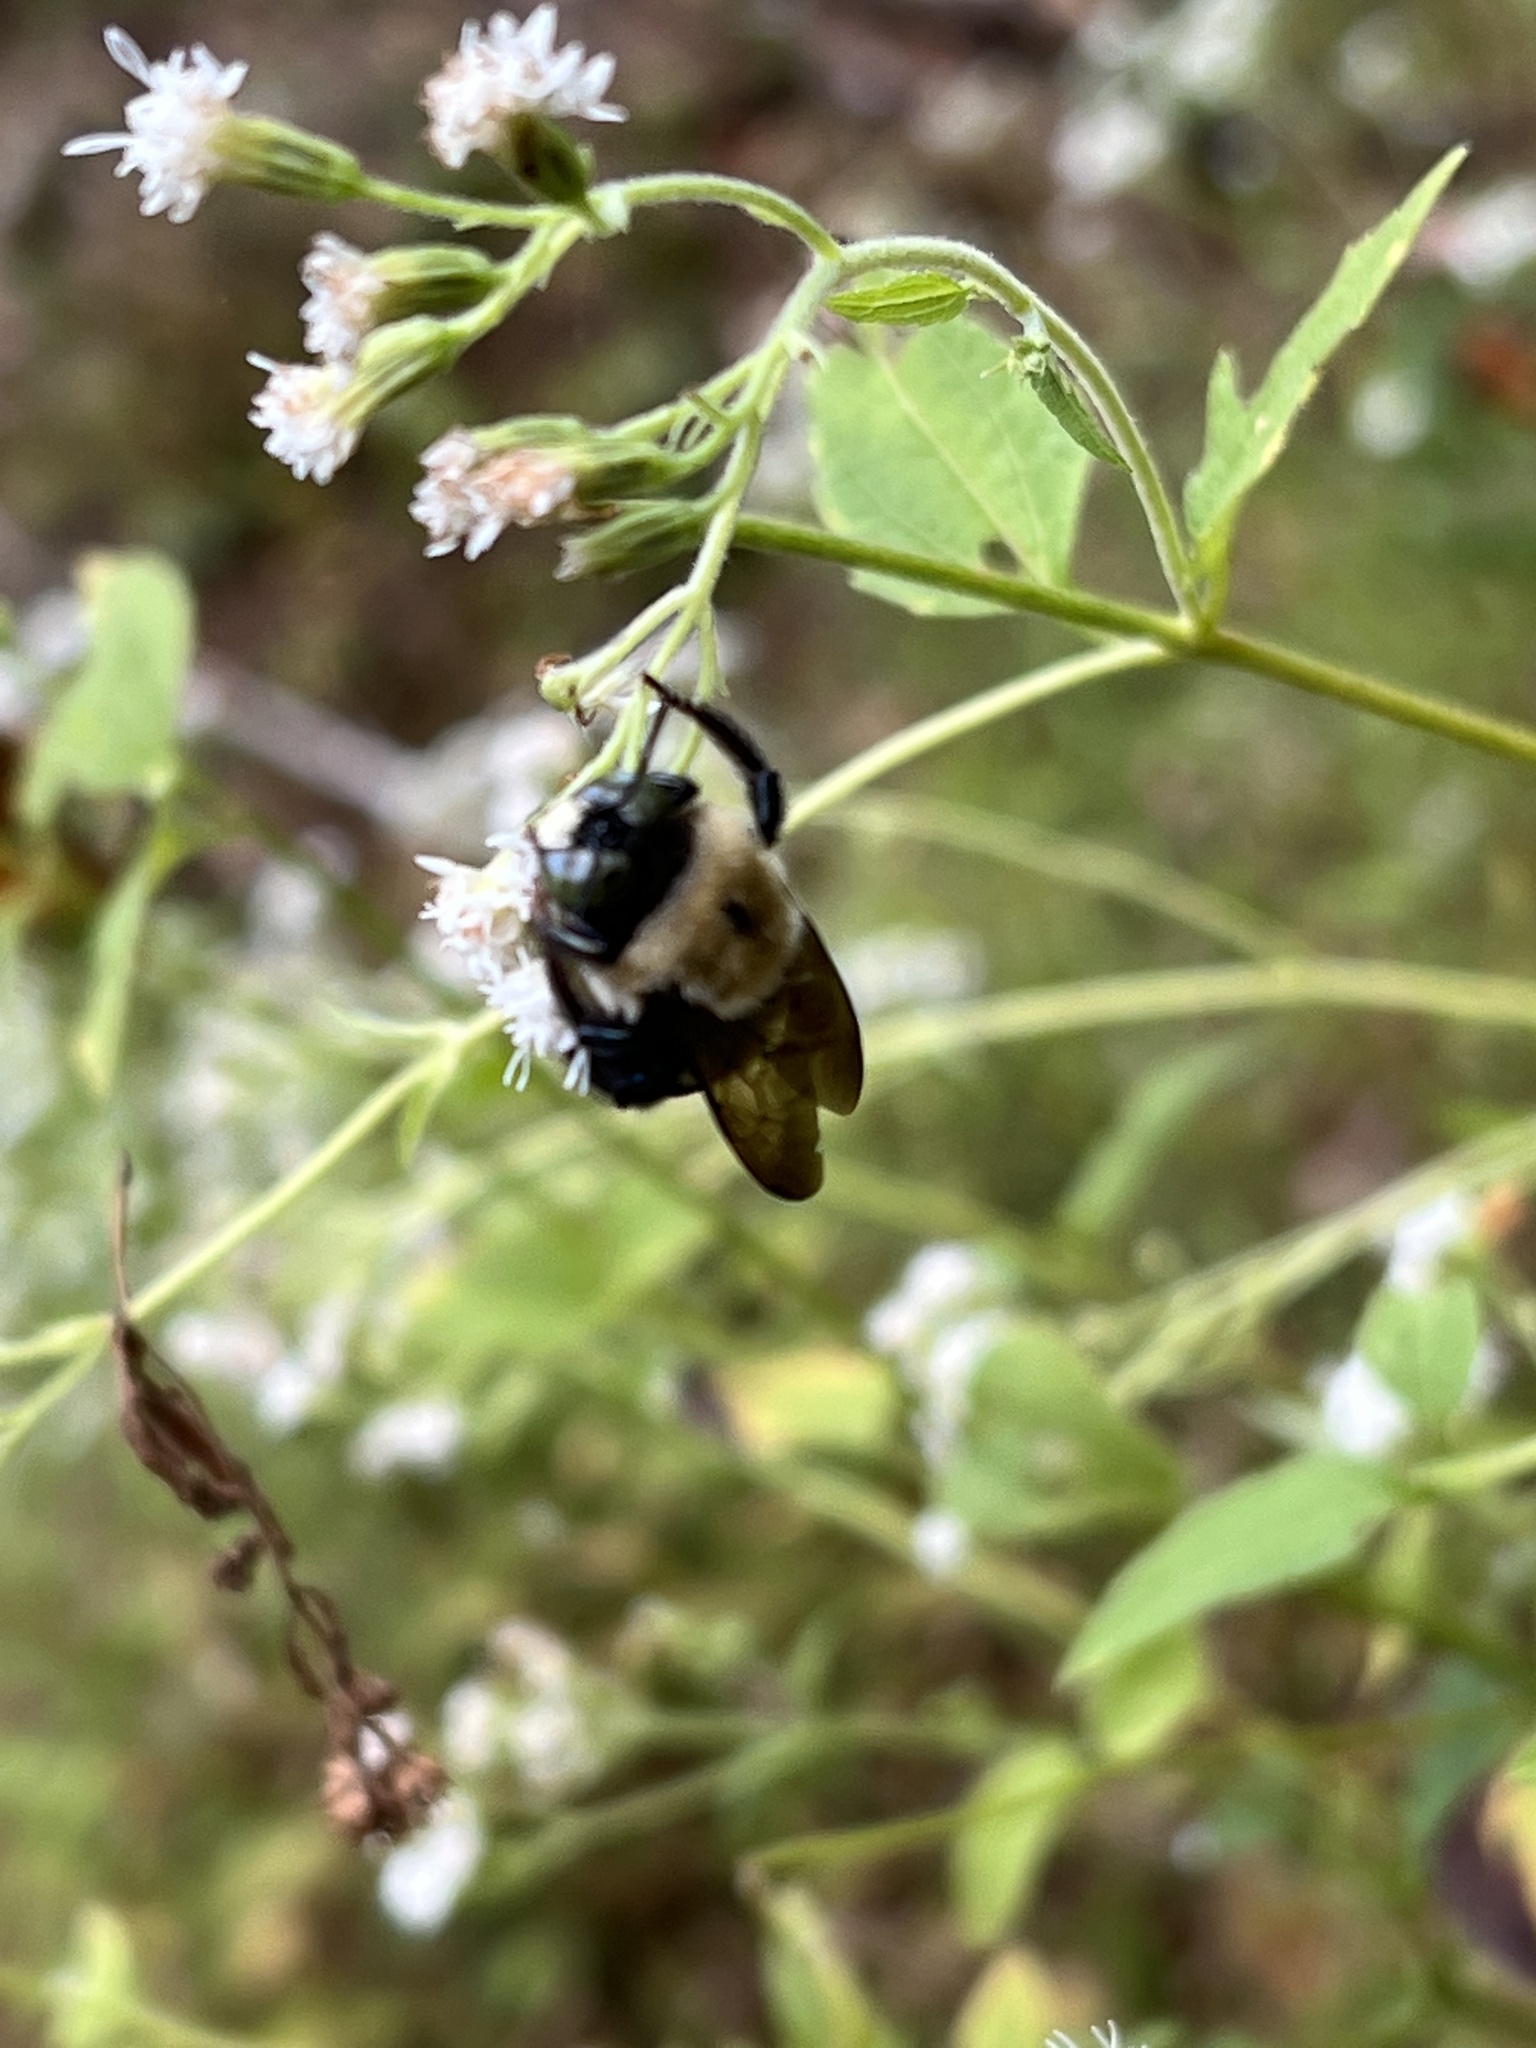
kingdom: Animalia
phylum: Arthropoda
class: Insecta
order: Hymenoptera
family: Apidae
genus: Xylocopa
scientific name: Xylocopa virginica
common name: Carpenter bee
